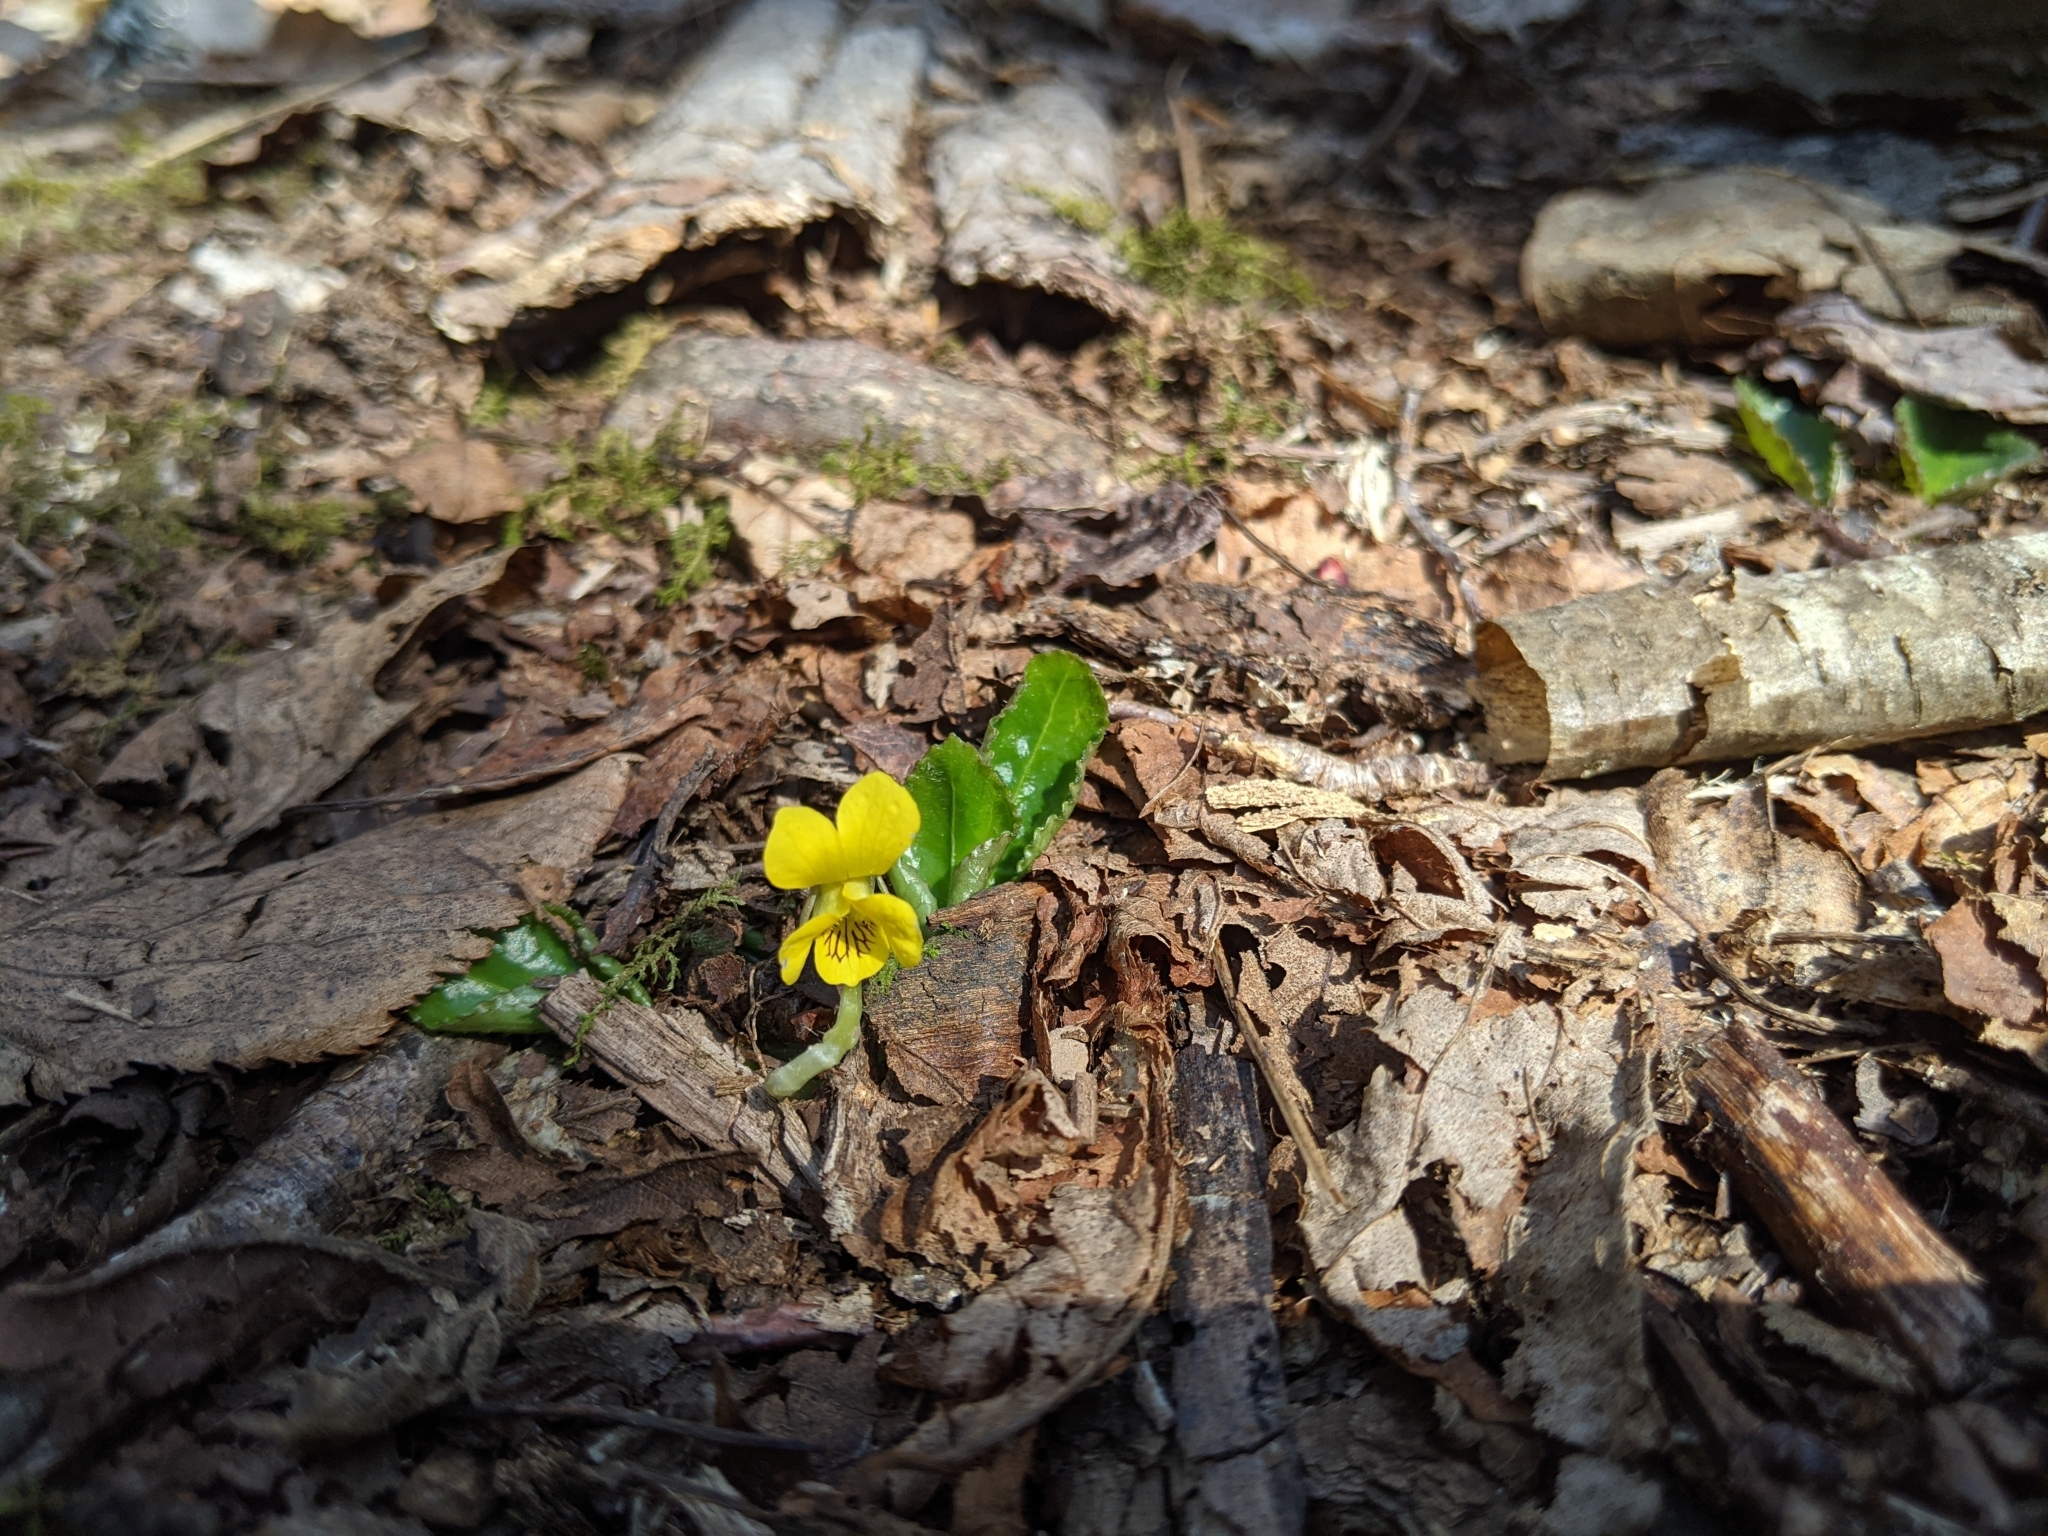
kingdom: Plantae
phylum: Tracheophyta
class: Magnoliopsida
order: Malpighiales
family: Violaceae
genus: Viola
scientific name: Viola rotundifolia
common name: Early yellow violet
